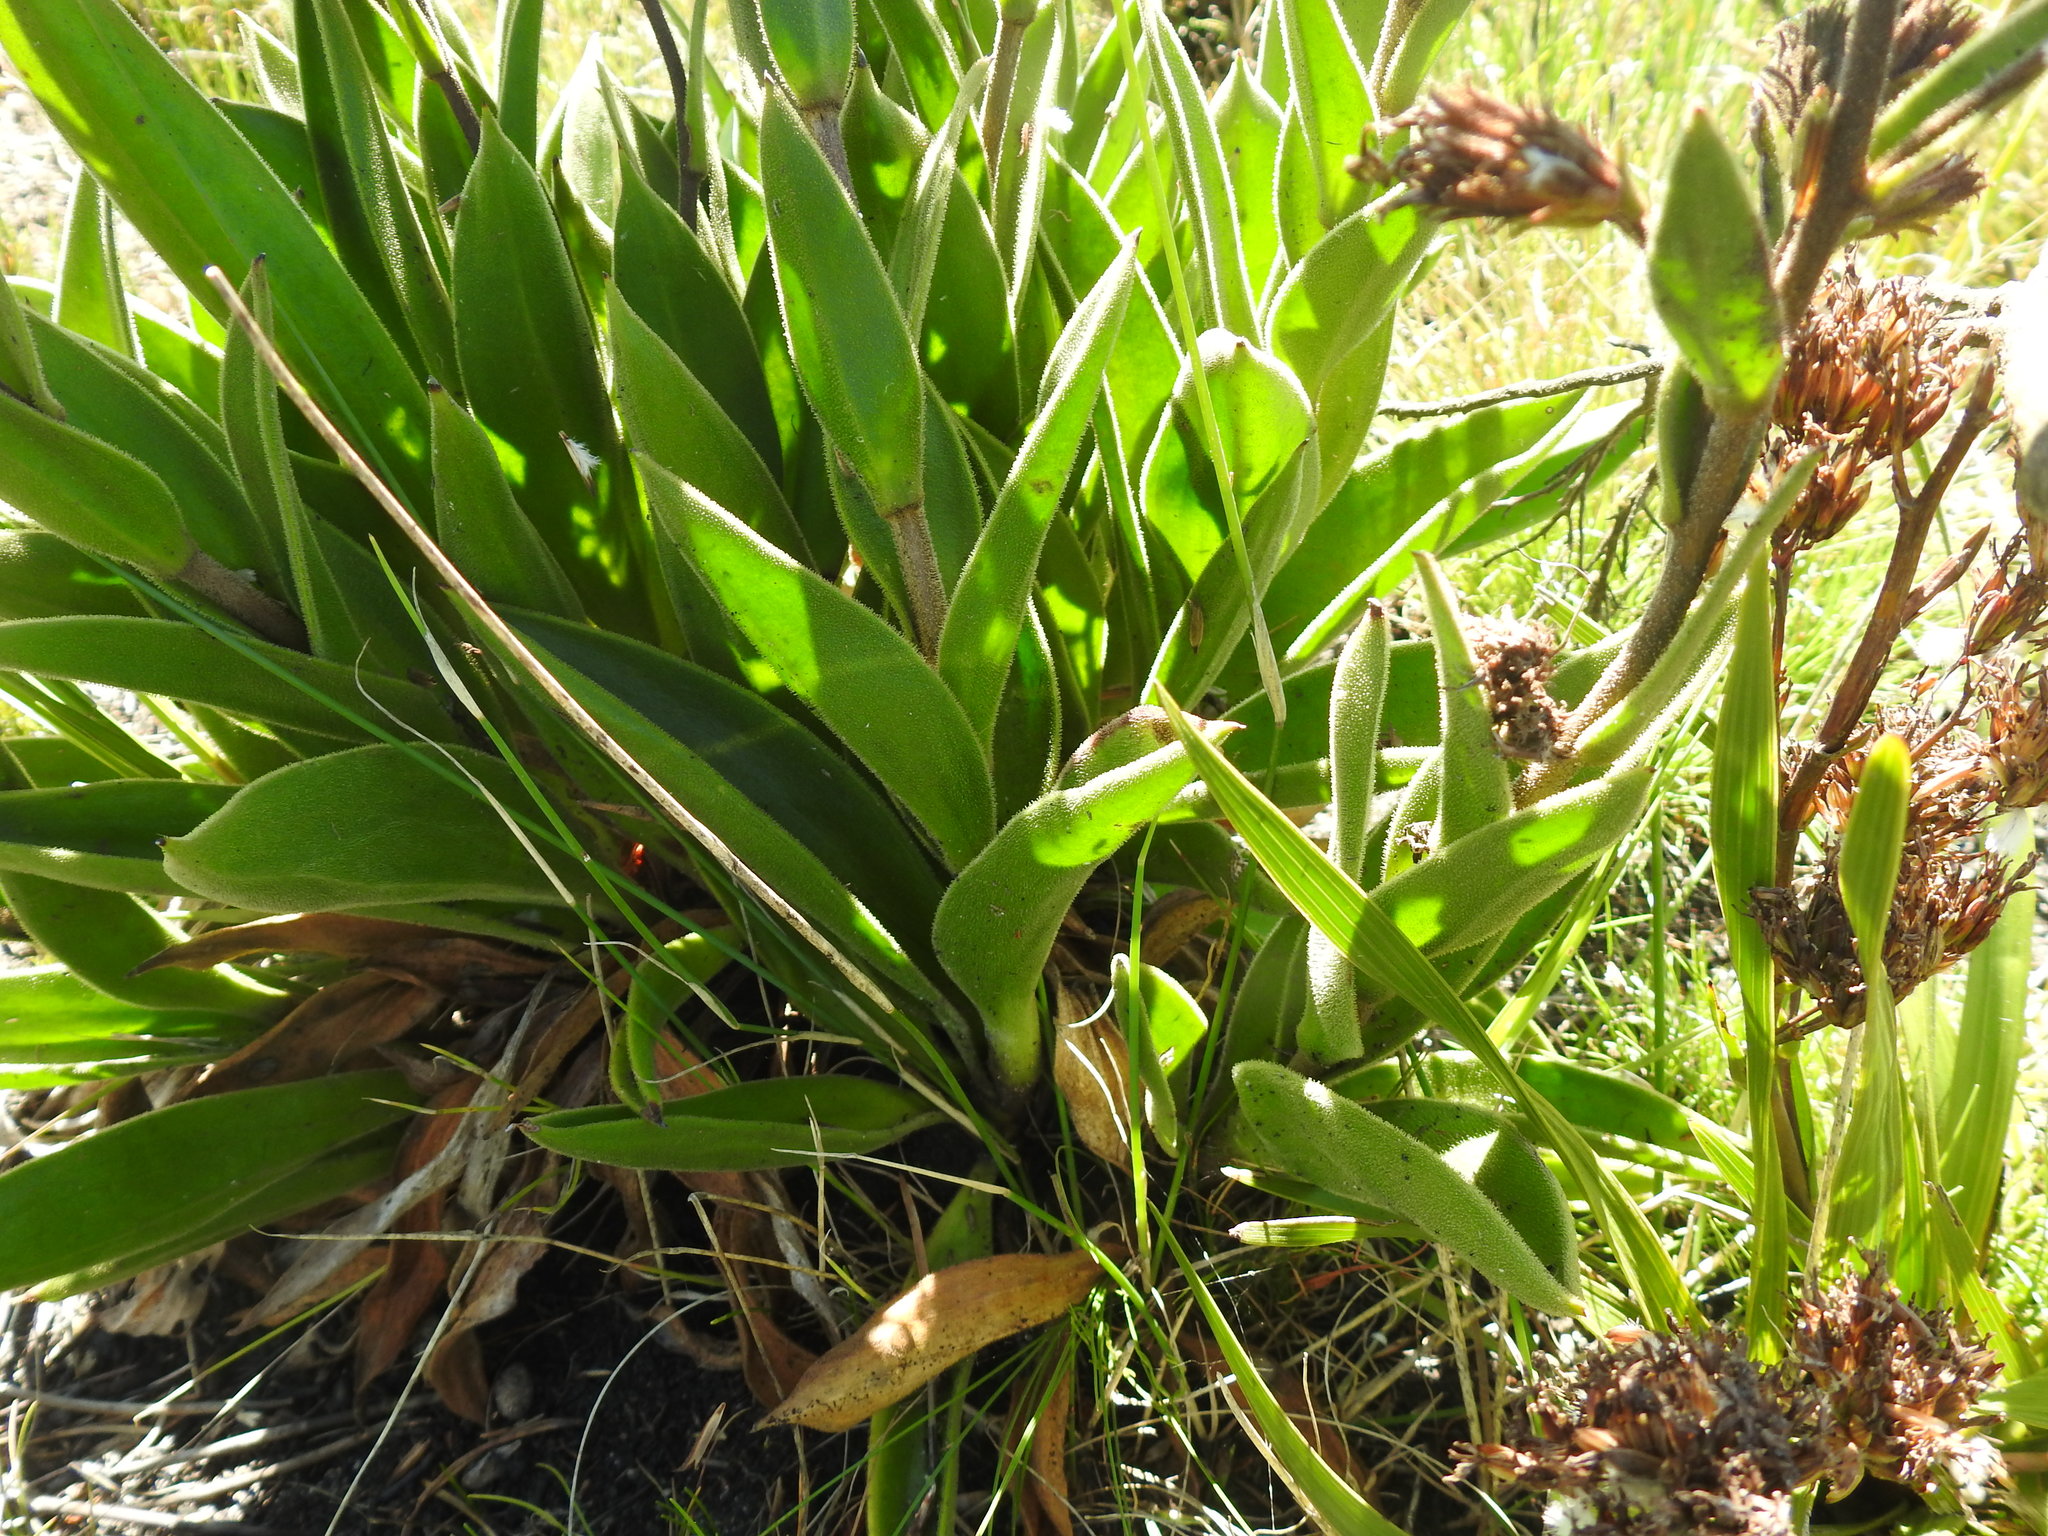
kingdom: Plantae
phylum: Tracheophyta
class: Magnoliopsida
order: Asterales
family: Asteraceae
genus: Corymbium
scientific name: Corymbium congestum
